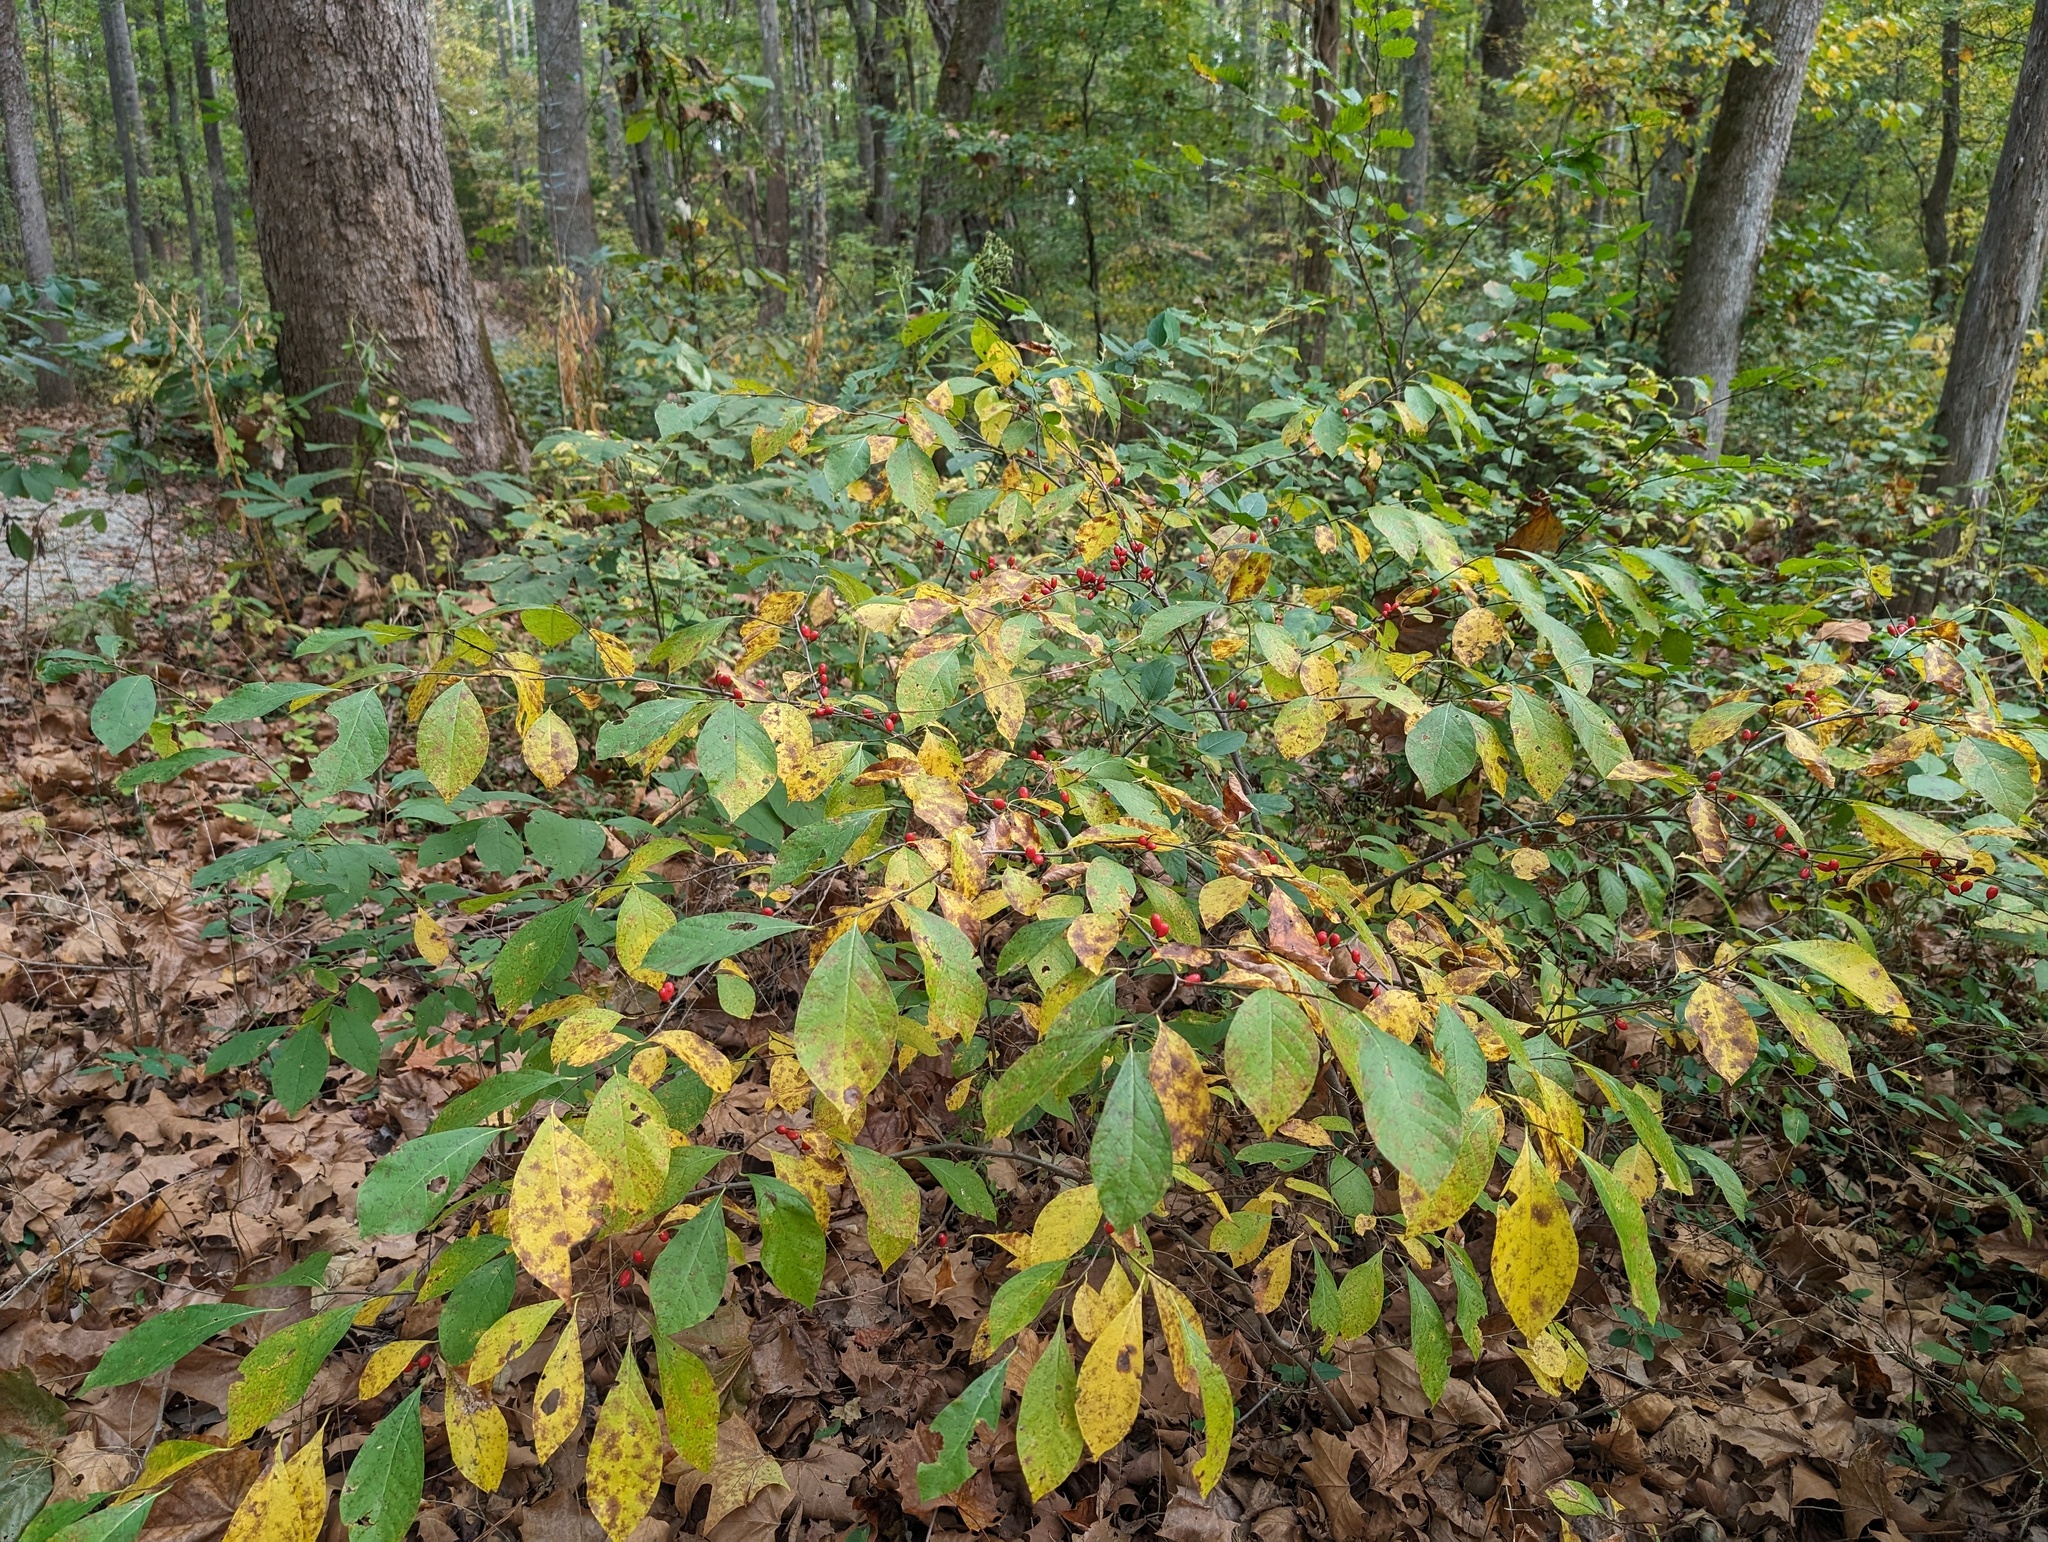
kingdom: Plantae
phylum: Tracheophyta
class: Magnoliopsida
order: Laurales
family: Lauraceae
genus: Lindera
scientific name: Lindera benzoin
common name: Spicebush
